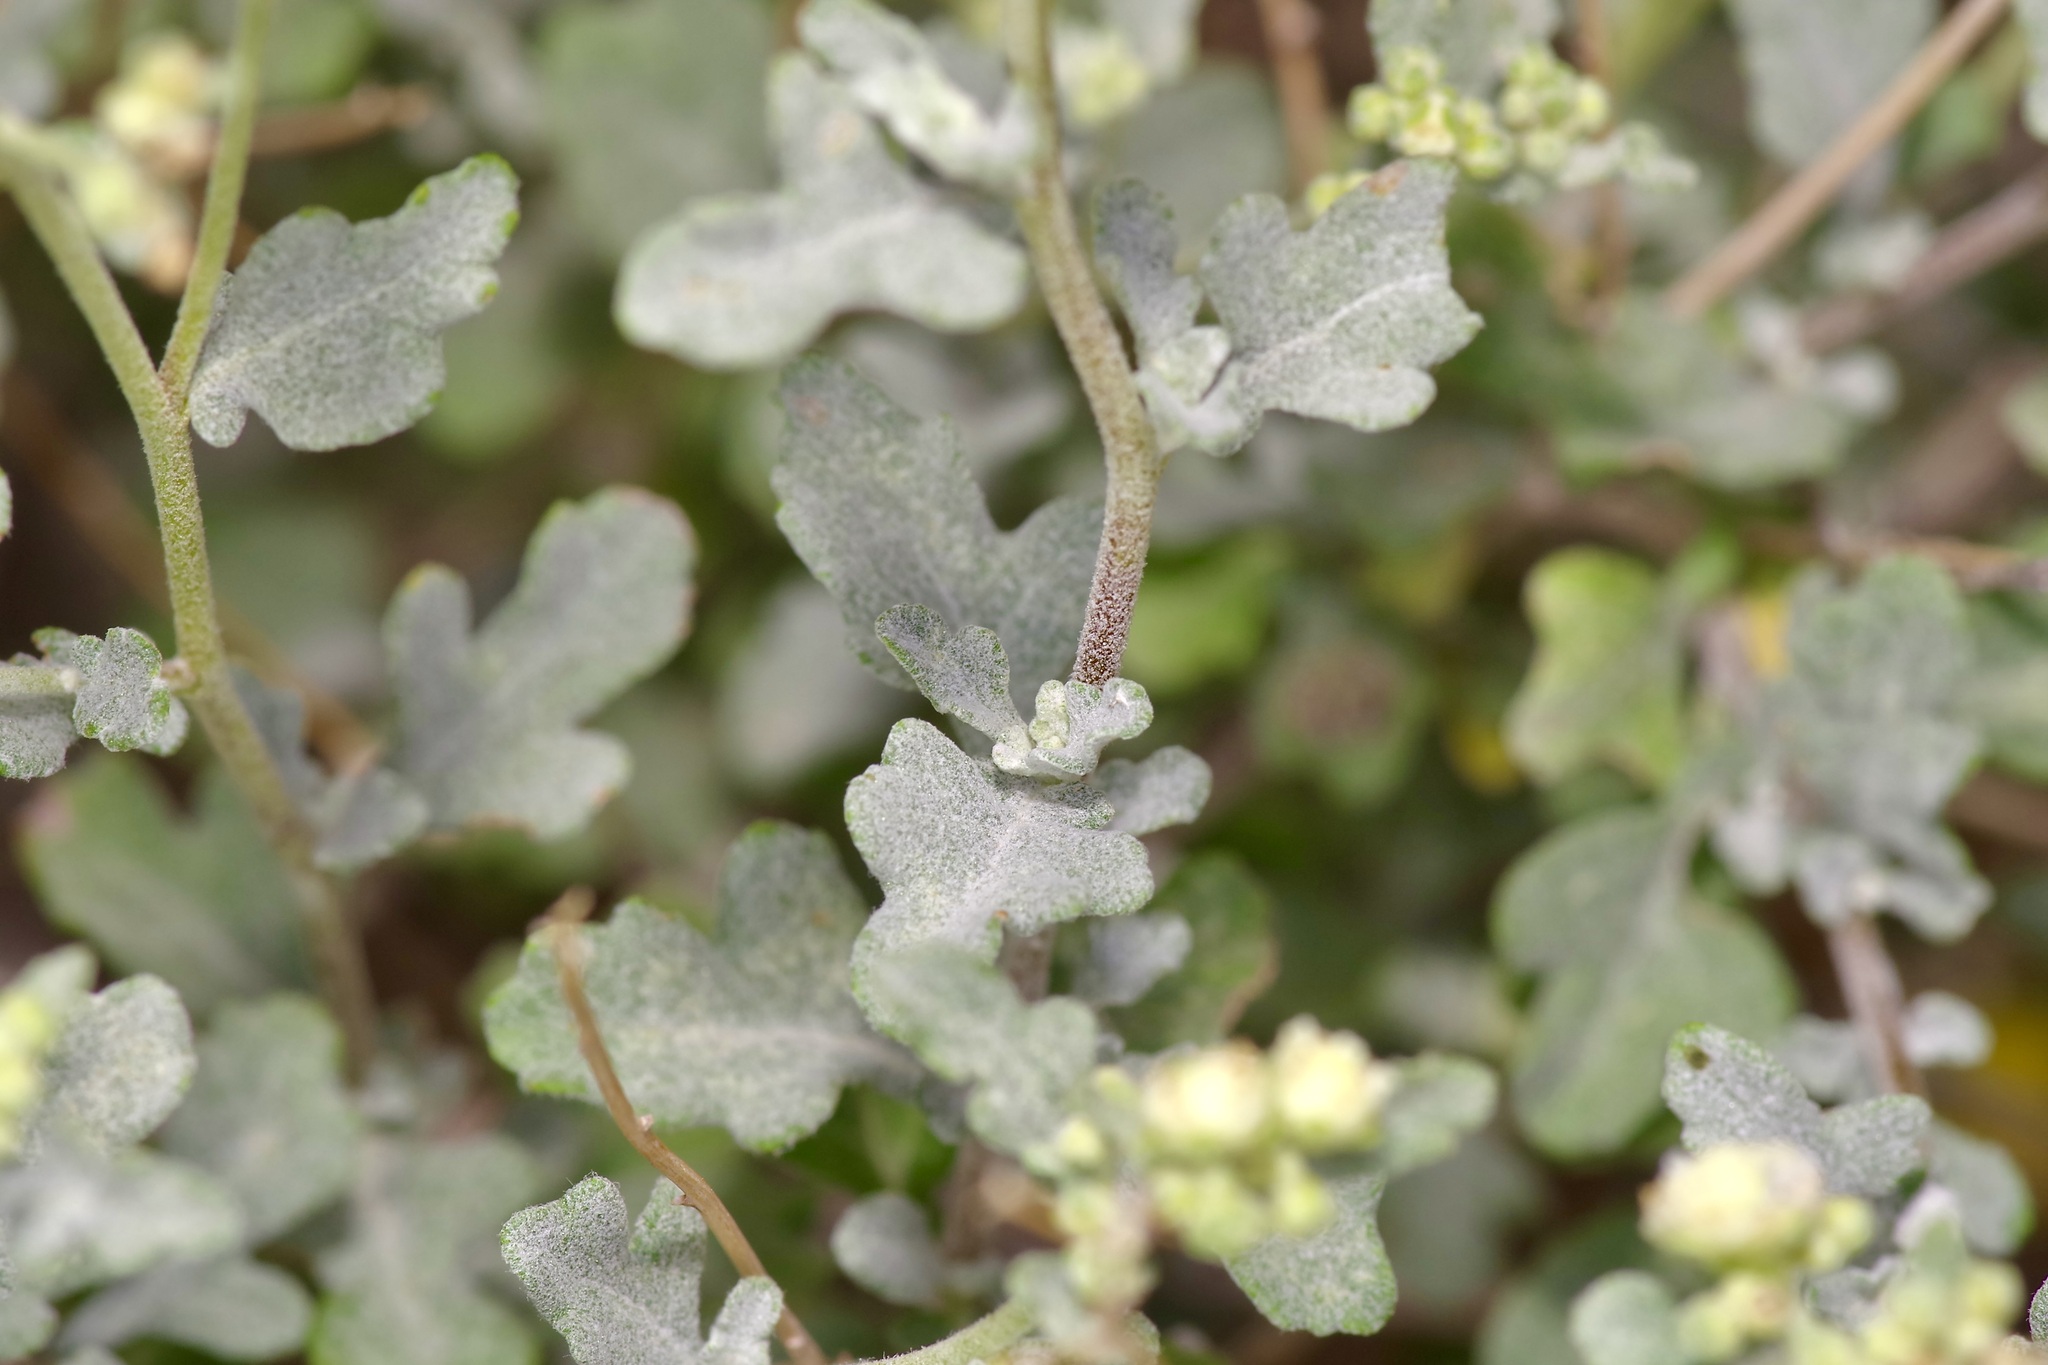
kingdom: Plantae
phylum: Tracheophyta
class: Magnoliopsida
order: Asterales
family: Asteraceae
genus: Parthenium
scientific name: Parthenium incanum
